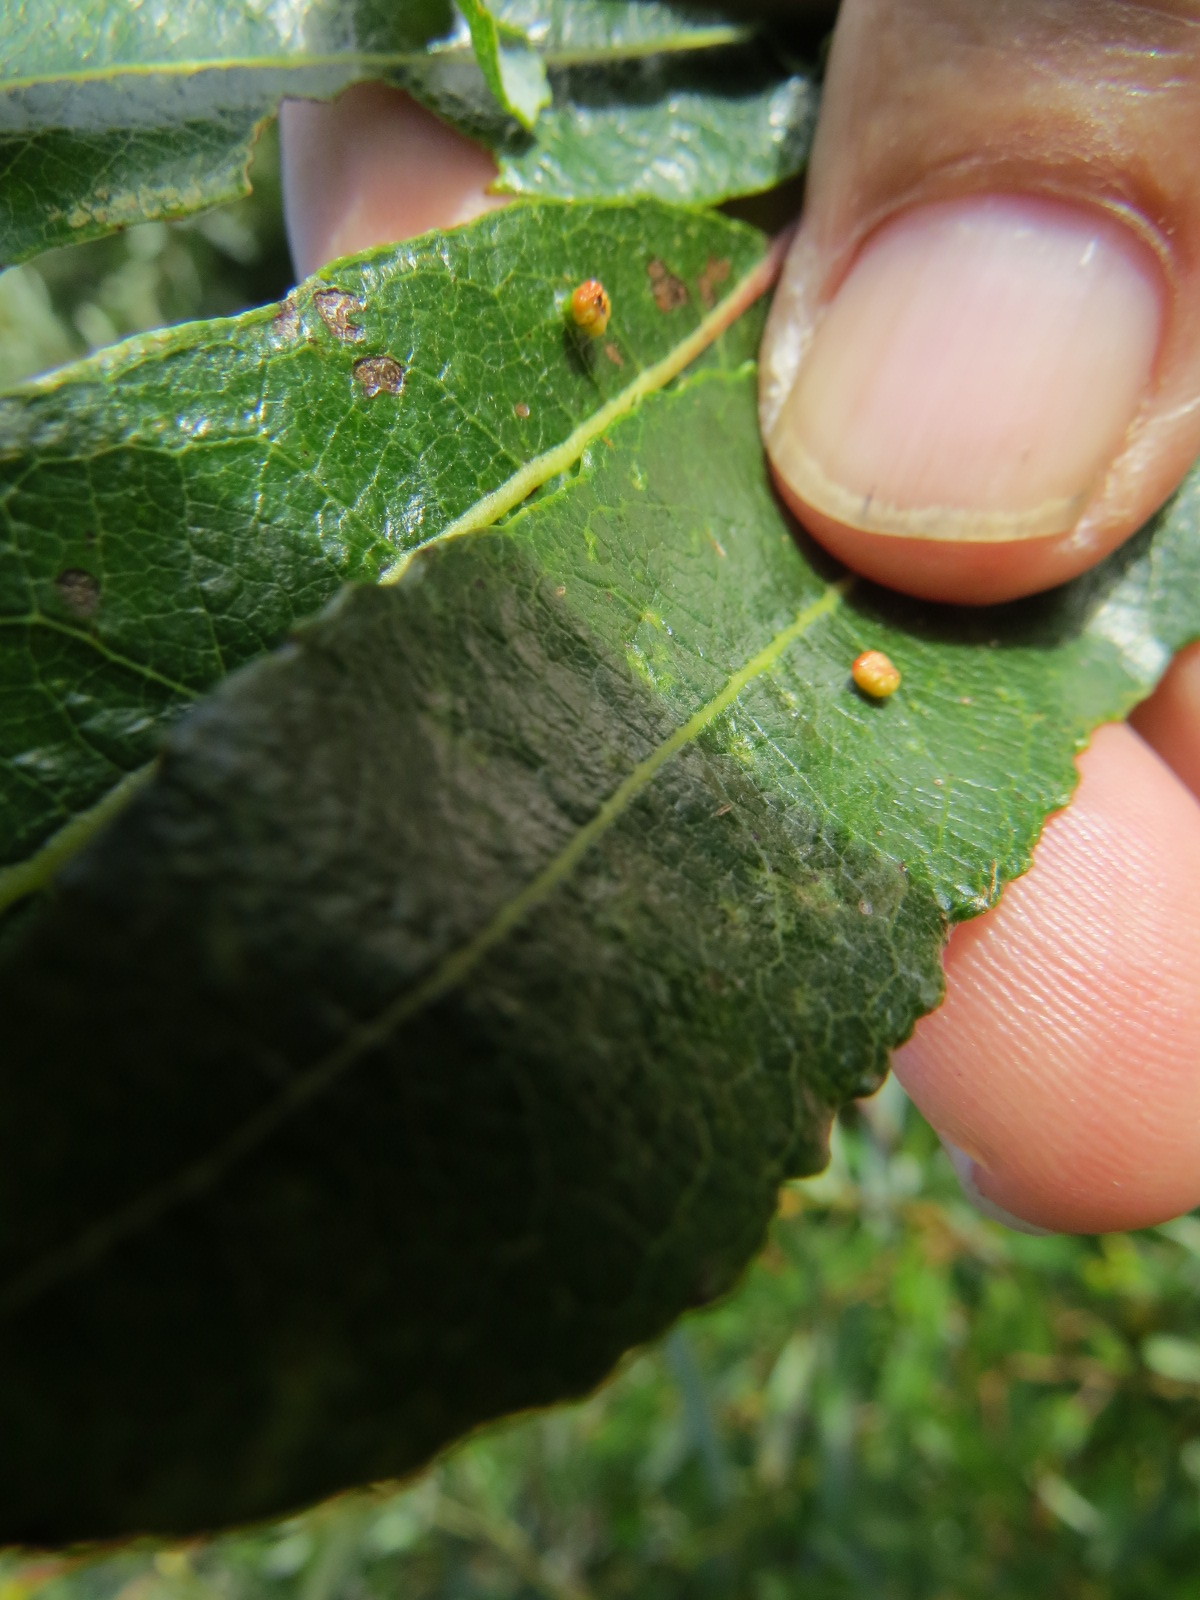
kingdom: Animalia
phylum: Arthropoda
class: Arachnida
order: Trombidiformes
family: Eriophyidae
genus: Aculus
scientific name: Aculus tetanothrix
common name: Willow bead gall mite
